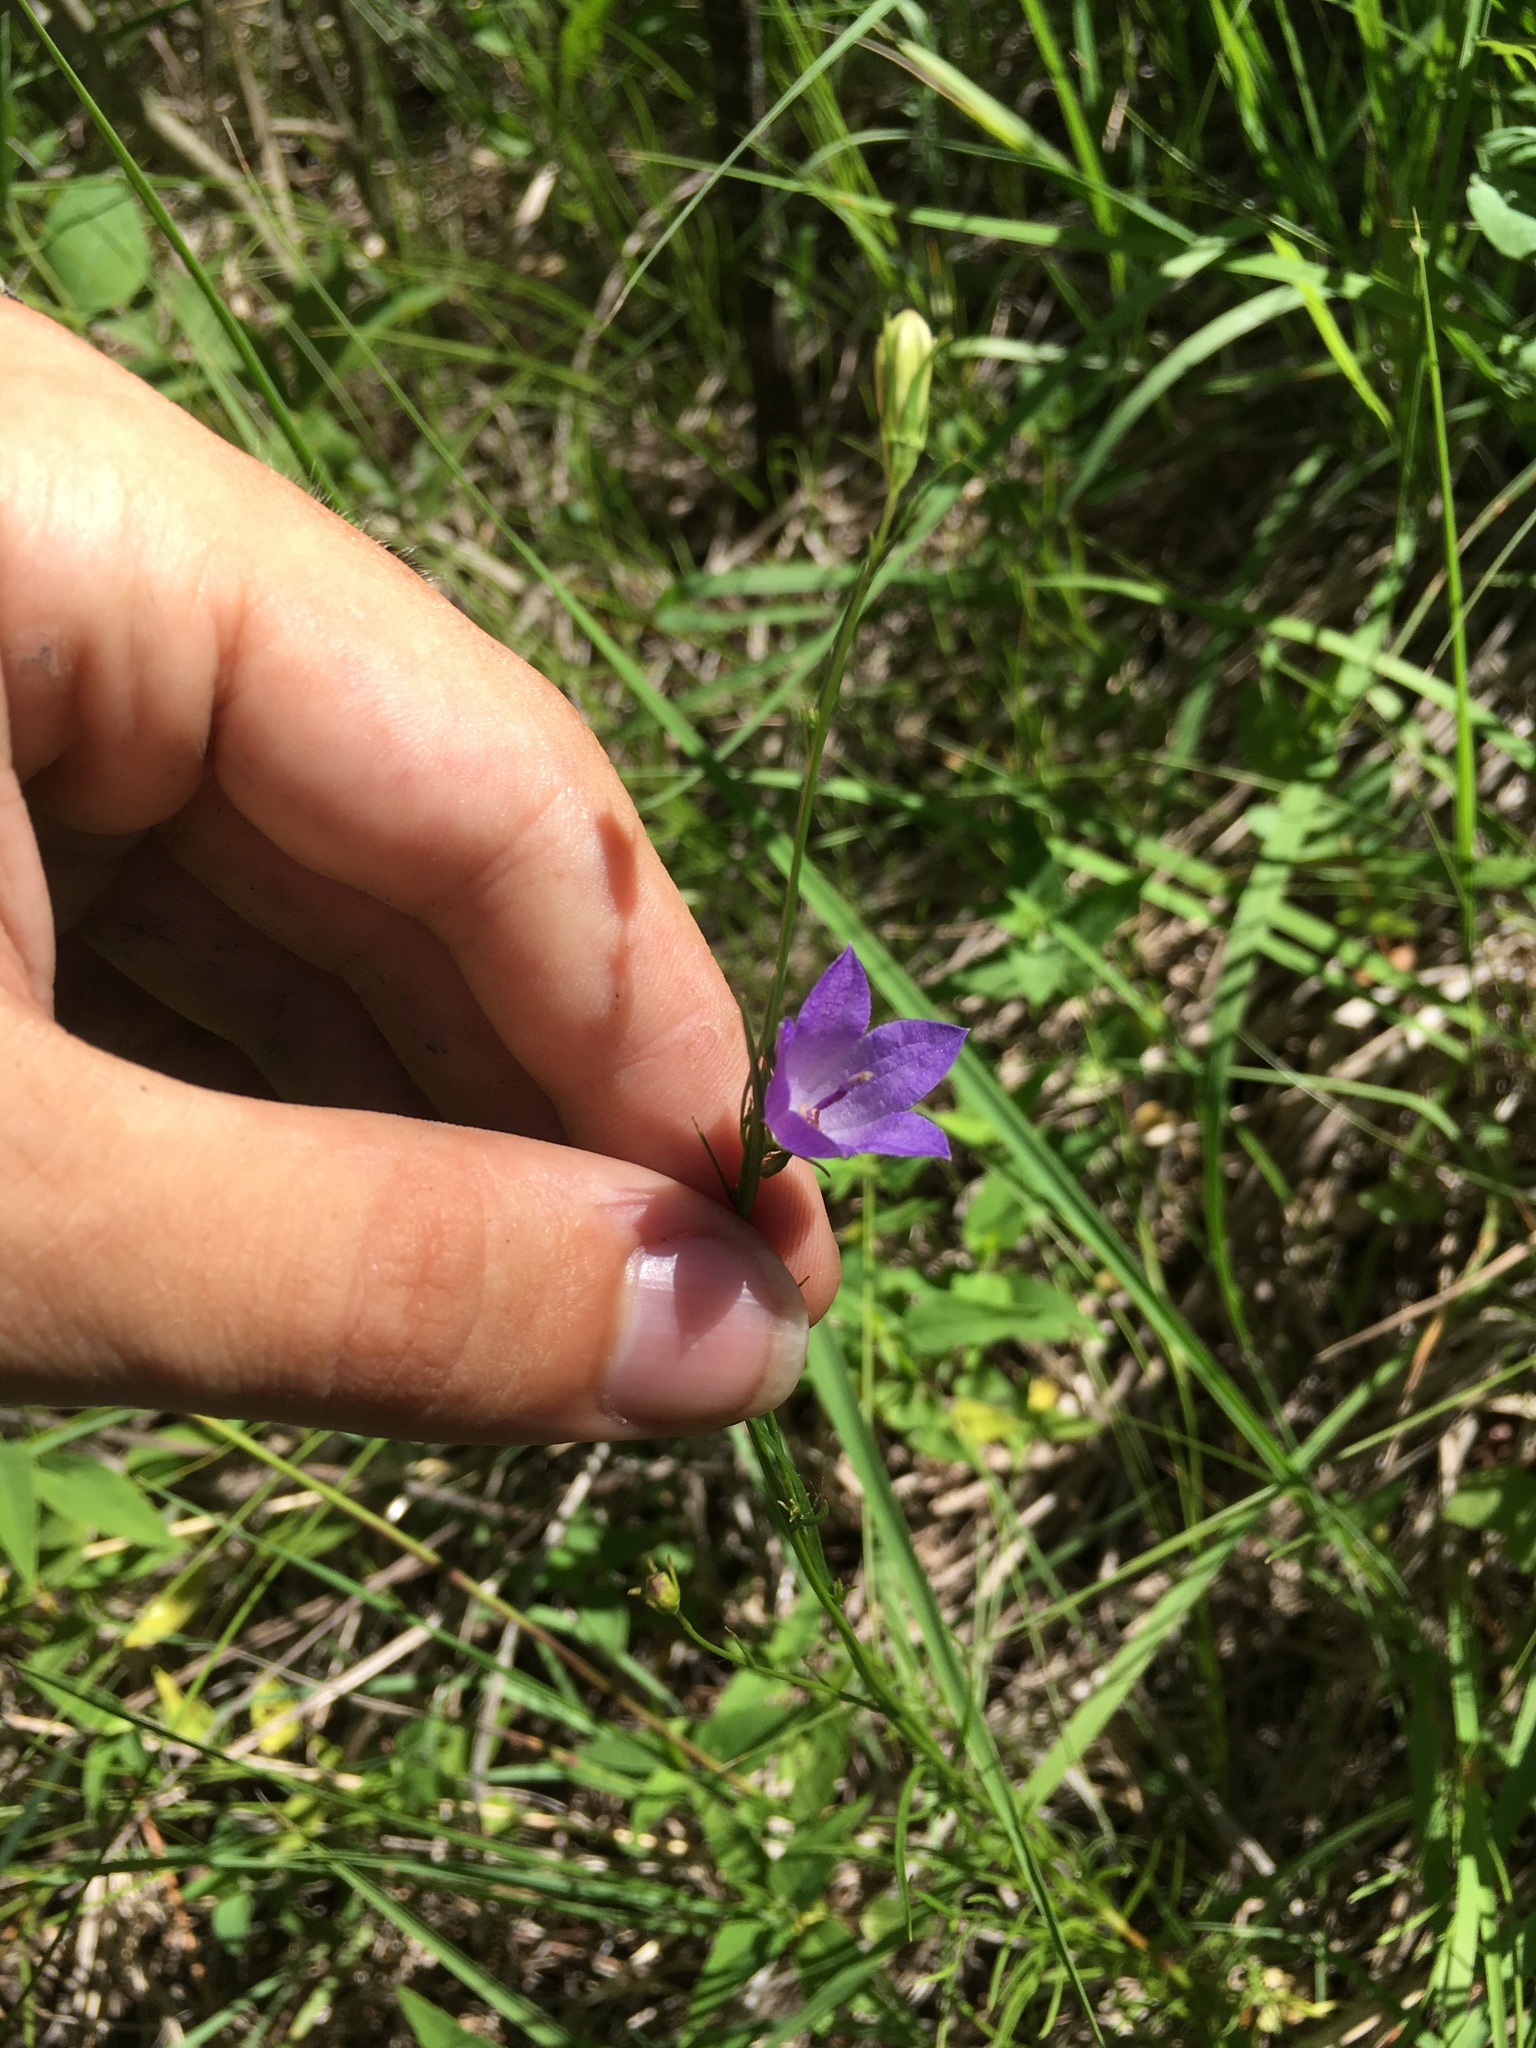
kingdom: Plantae
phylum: Tracheophyta
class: Magnoliopsida
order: Asterales
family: Campanulaceae
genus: Campanula
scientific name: Campanula intercedens
